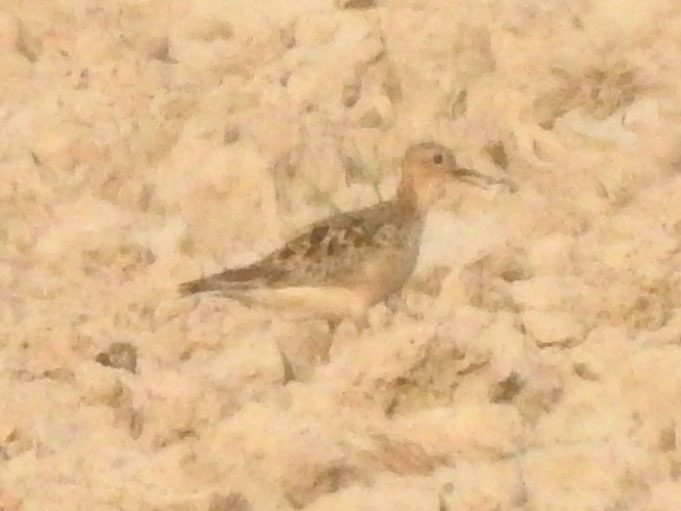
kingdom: Animalia
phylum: Chordata
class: Aves
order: Charadriiformes
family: Scolopacidae
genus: Calidris
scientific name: Calidris subruficollis
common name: Buff-breasted sandpiper
